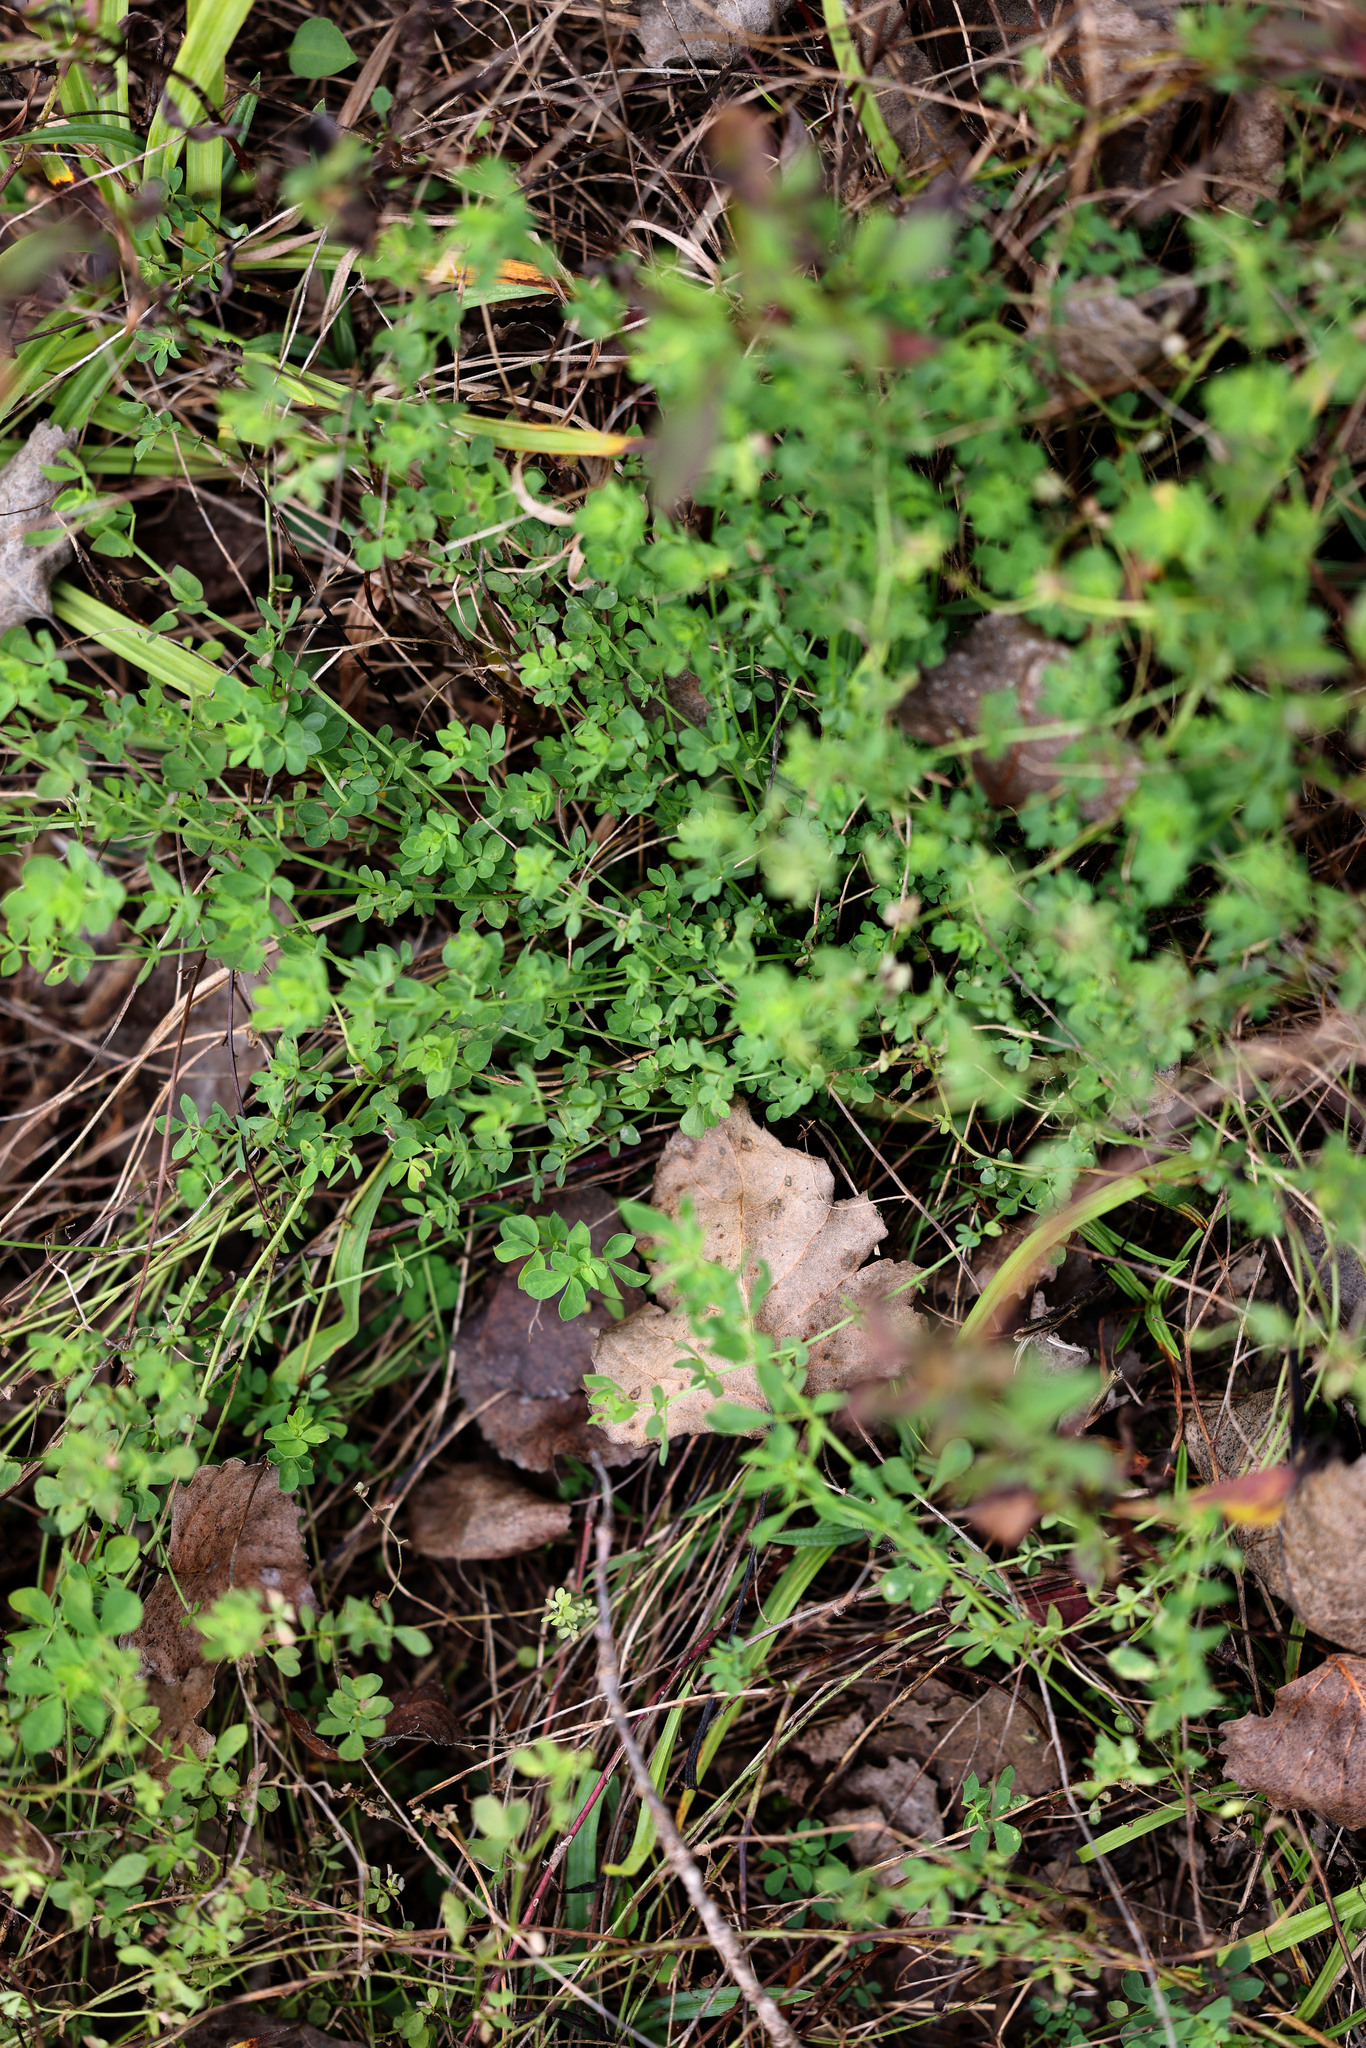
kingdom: Plantae
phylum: Tracheophyta
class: Magnoliopsida
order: Fabales
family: Fabaceae
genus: Lotus
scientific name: Lotus corniculatus
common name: Common bird's-foot-trefoil
